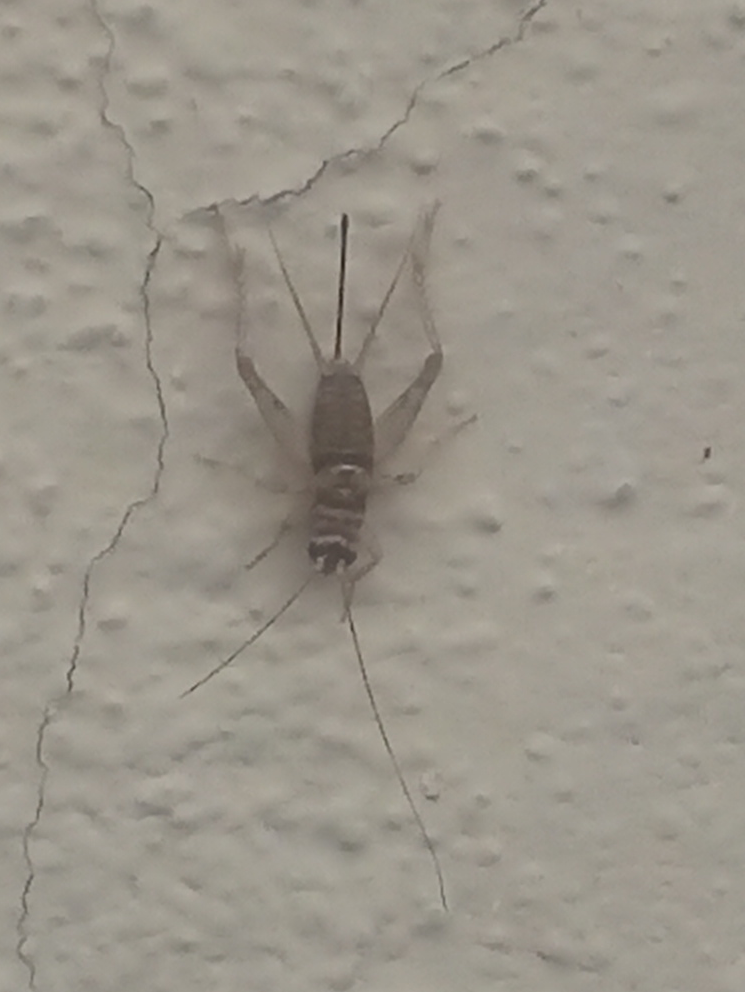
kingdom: Animalia
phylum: Arthropoda
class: Insecta
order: Orthoptera
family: Gryllidae
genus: Gryllodes
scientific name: Gryllodes sigillatus
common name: Tropical house cricket
